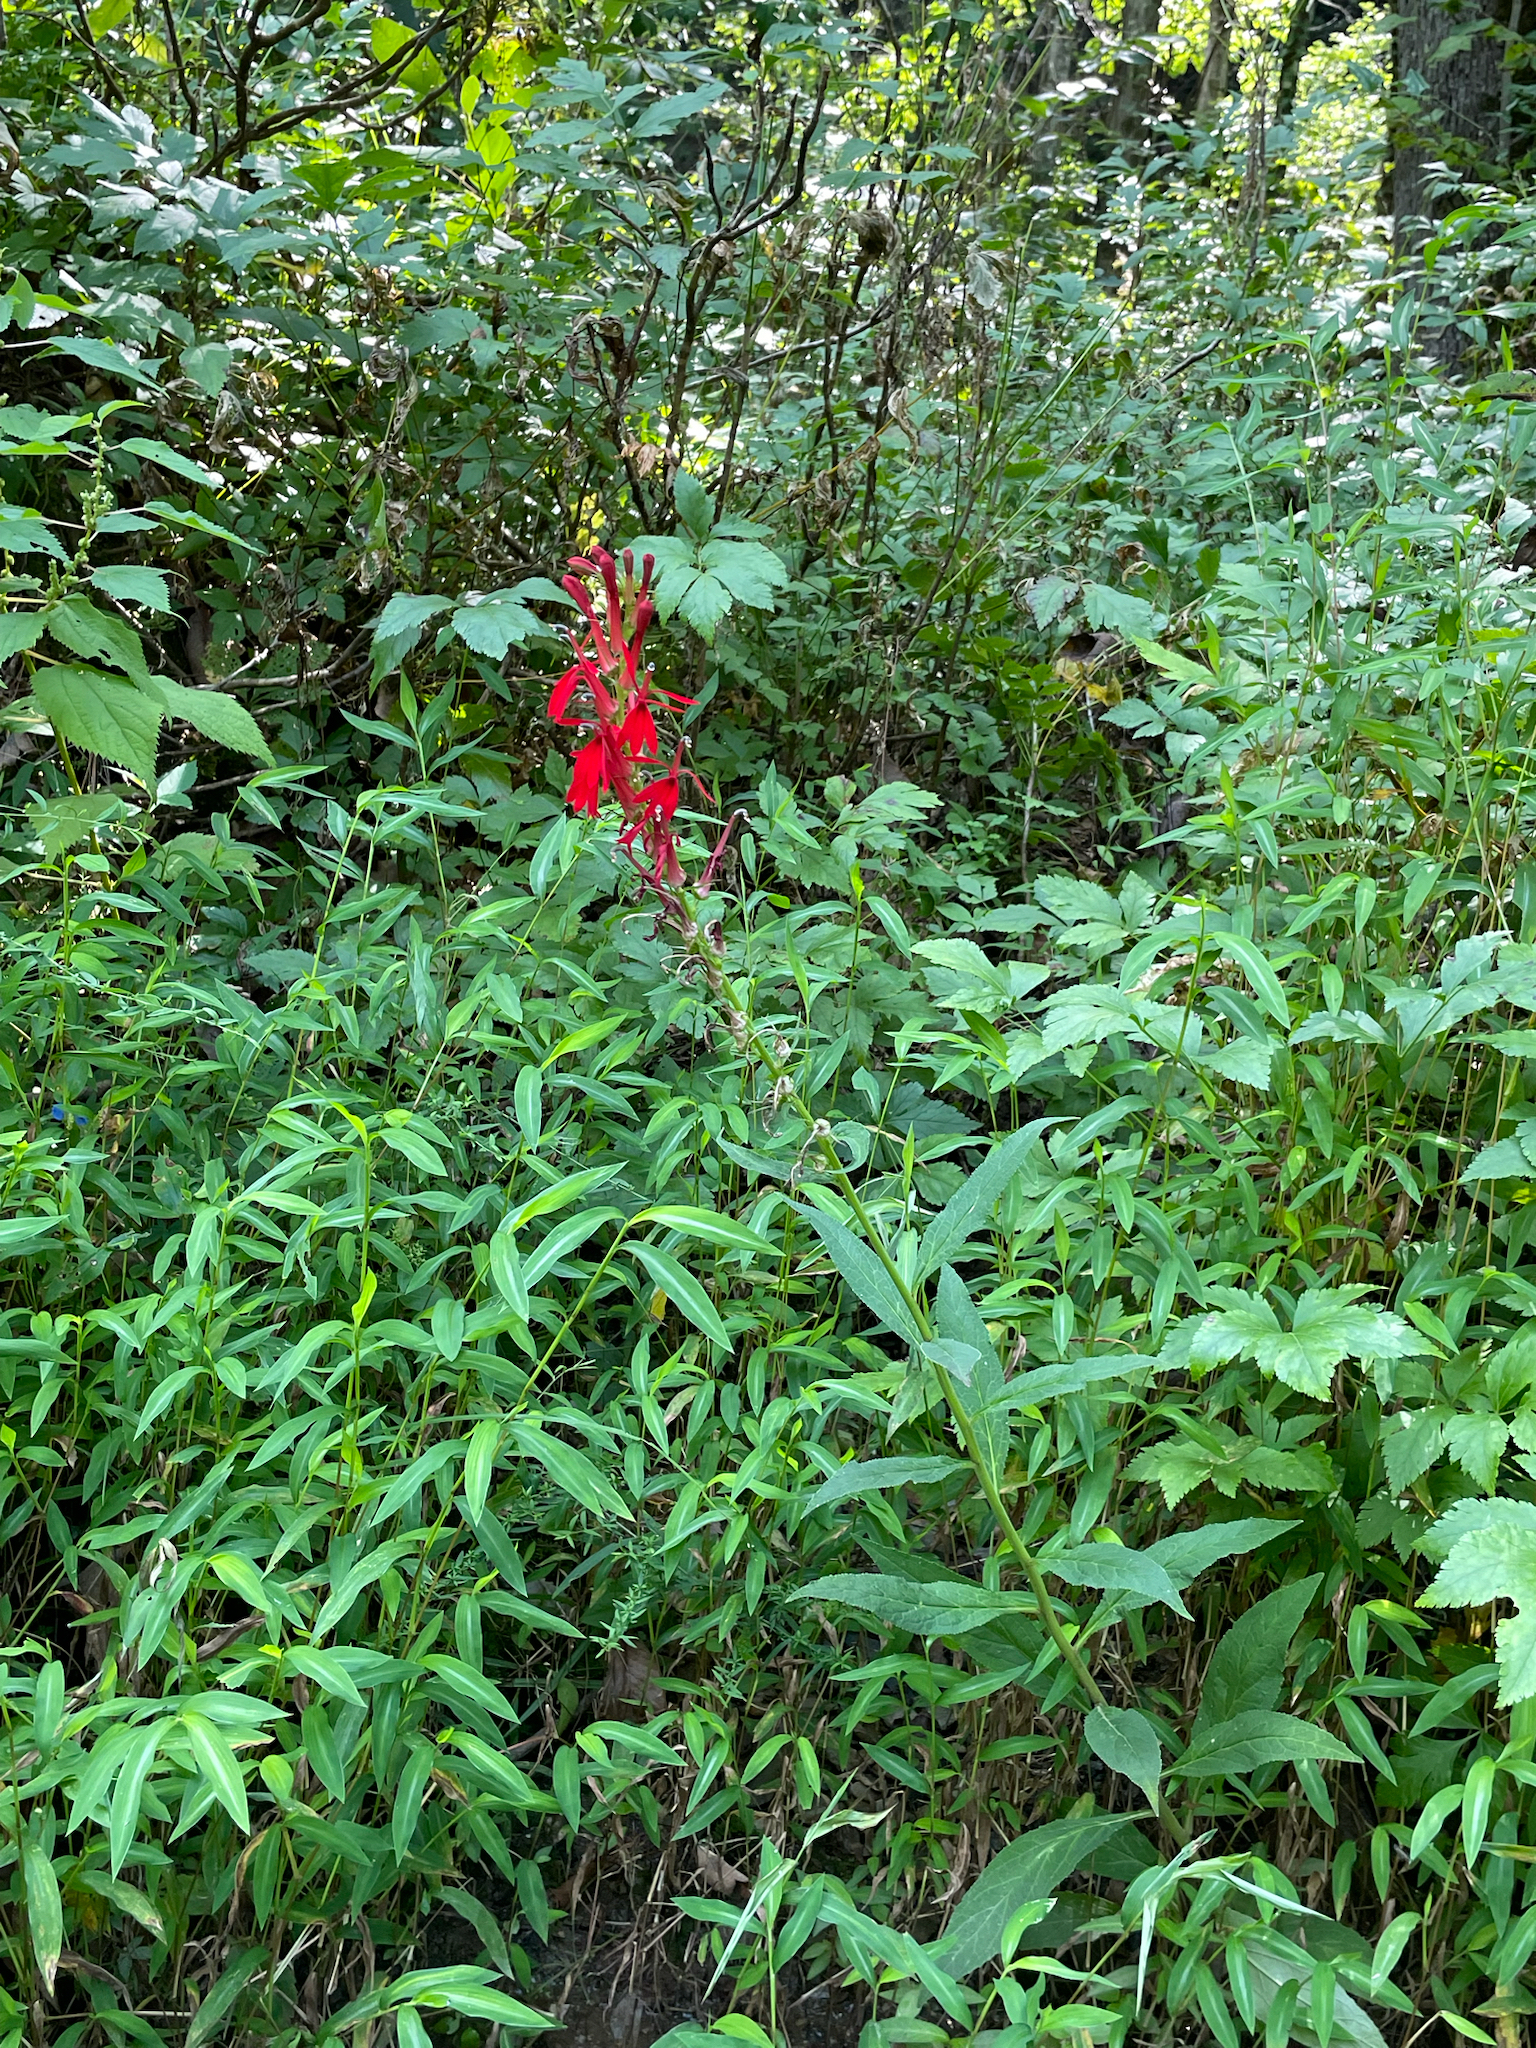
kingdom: Plantae
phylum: Tracheophyta
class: Magnoliopsida
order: Asterales
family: Campanulaceae
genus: Lobelia
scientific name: Lobelia cardinalis
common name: Cardinal flower
